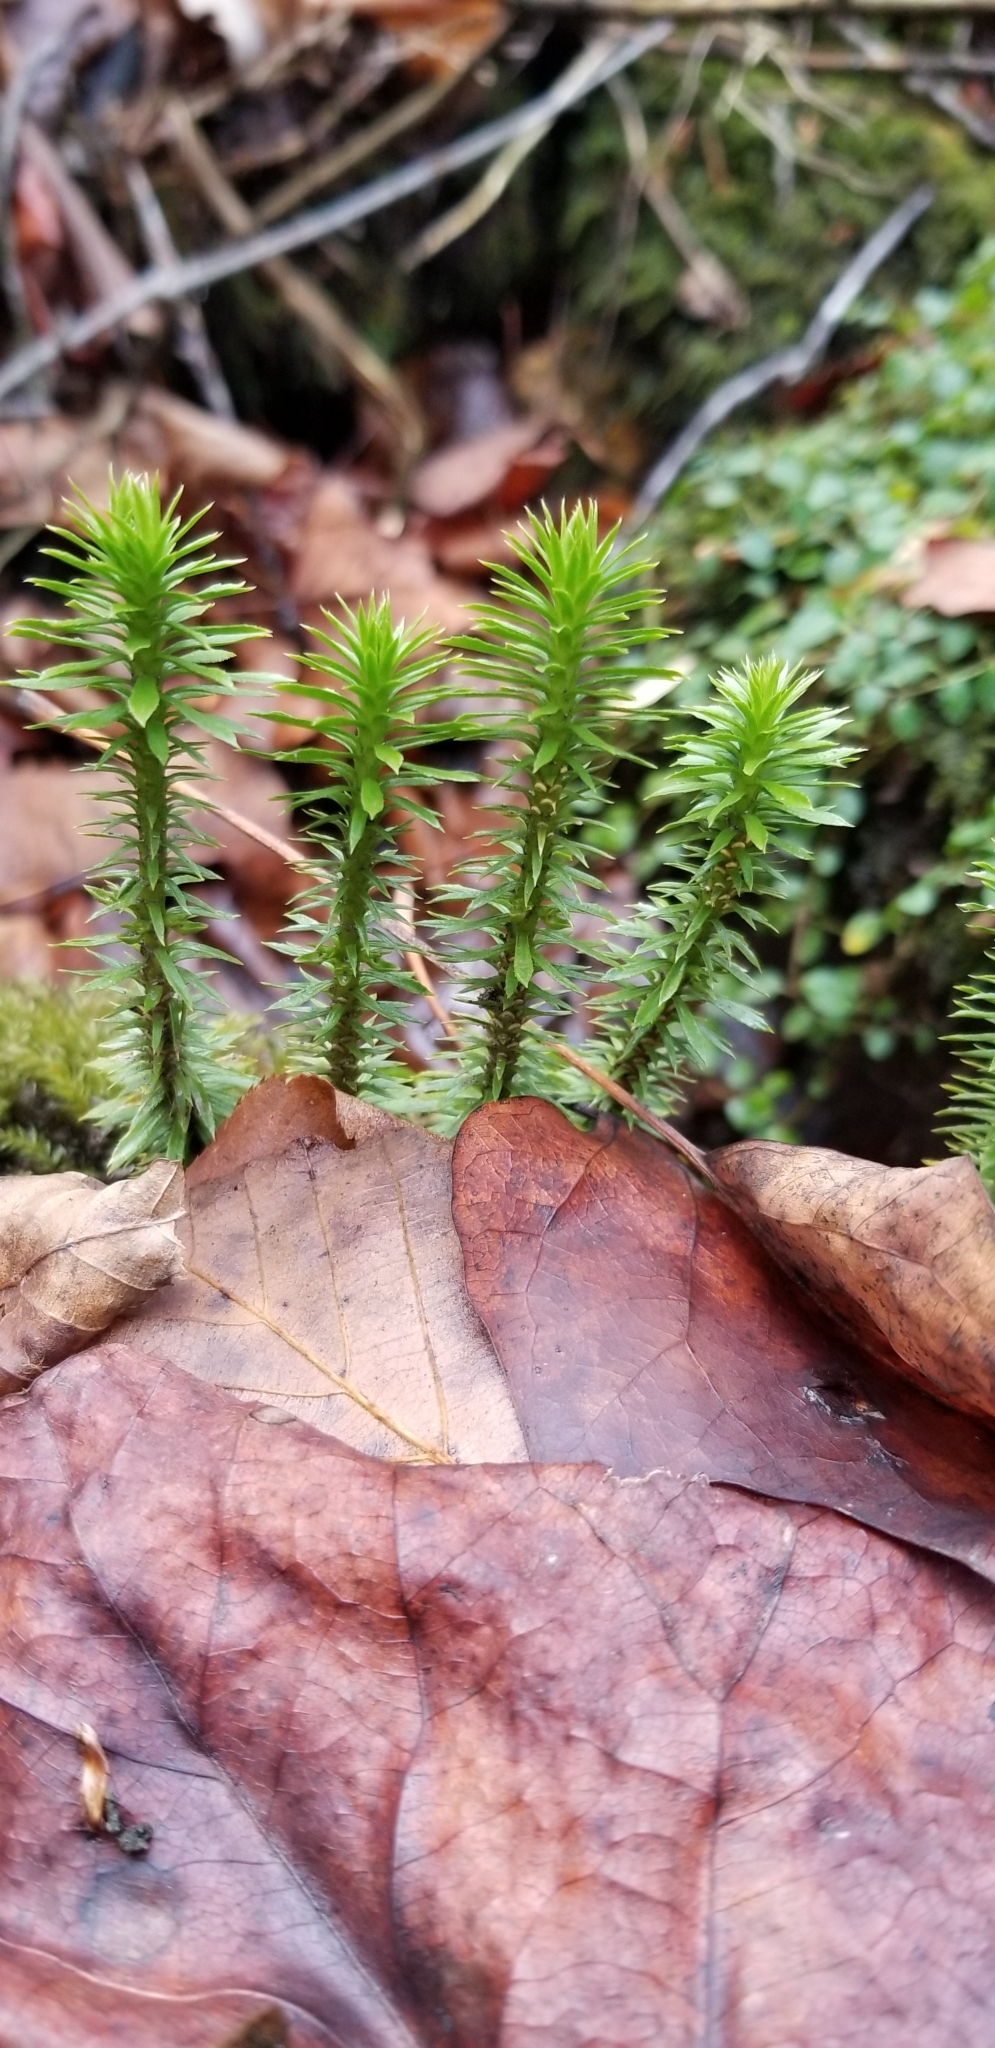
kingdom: Plantae
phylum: Tracheophyta
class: Lycopodiopsida
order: Lycopodiales
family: Lycopodiaceae
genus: Huperzia
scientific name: Huperzia lucidula
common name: Shining clubmoss
